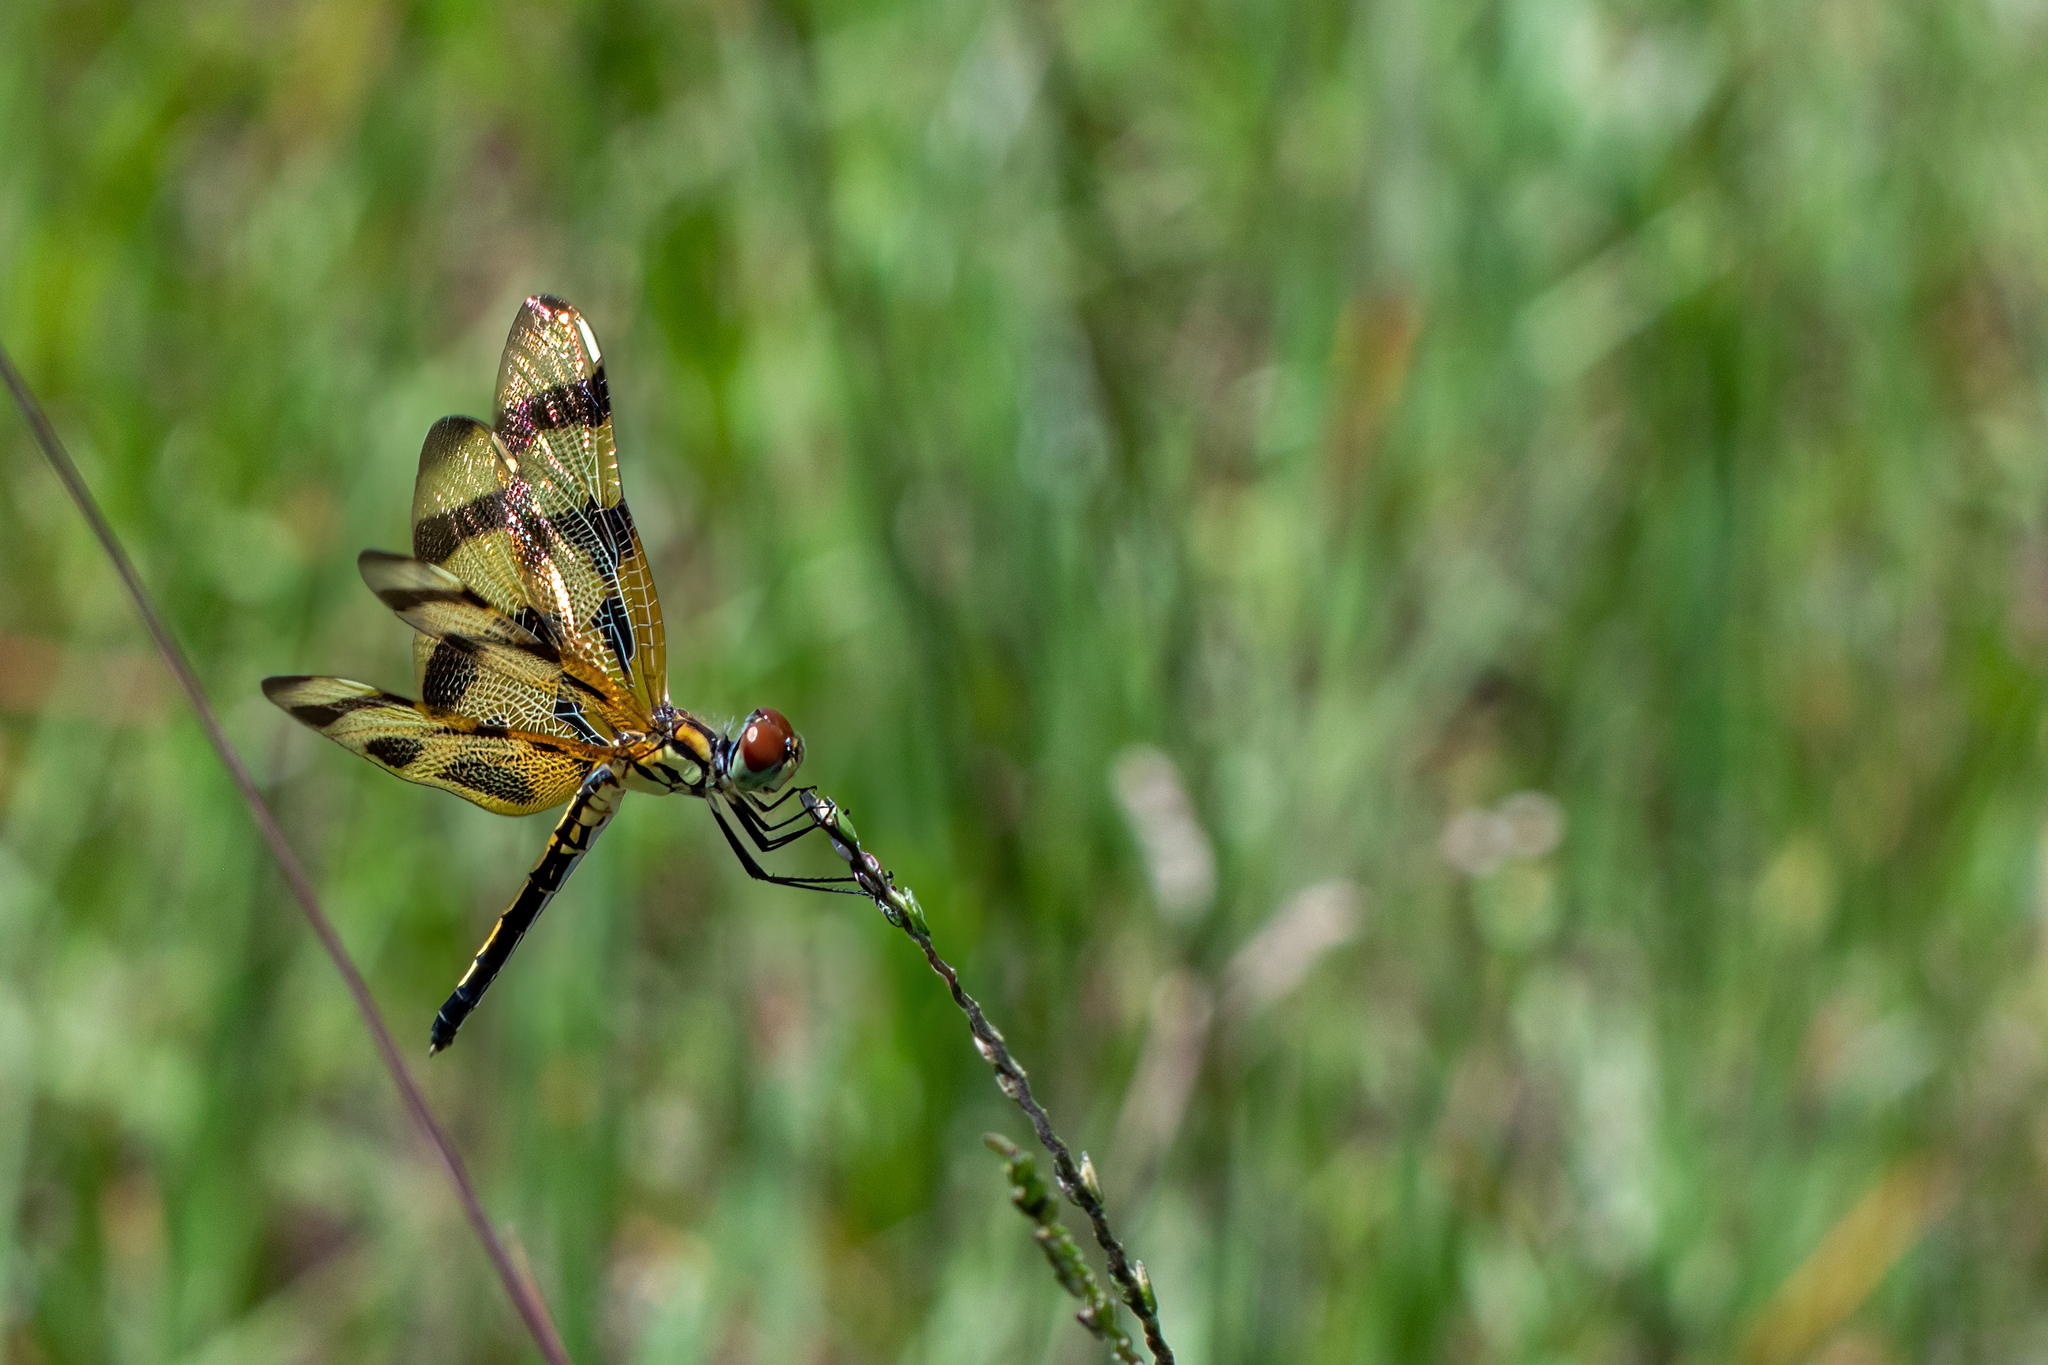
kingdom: Animalia
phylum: Arthropoda
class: Insecta
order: Odonata
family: Libellulidae
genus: Celithemis
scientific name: Celithemis eponina
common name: Halloween pennant
